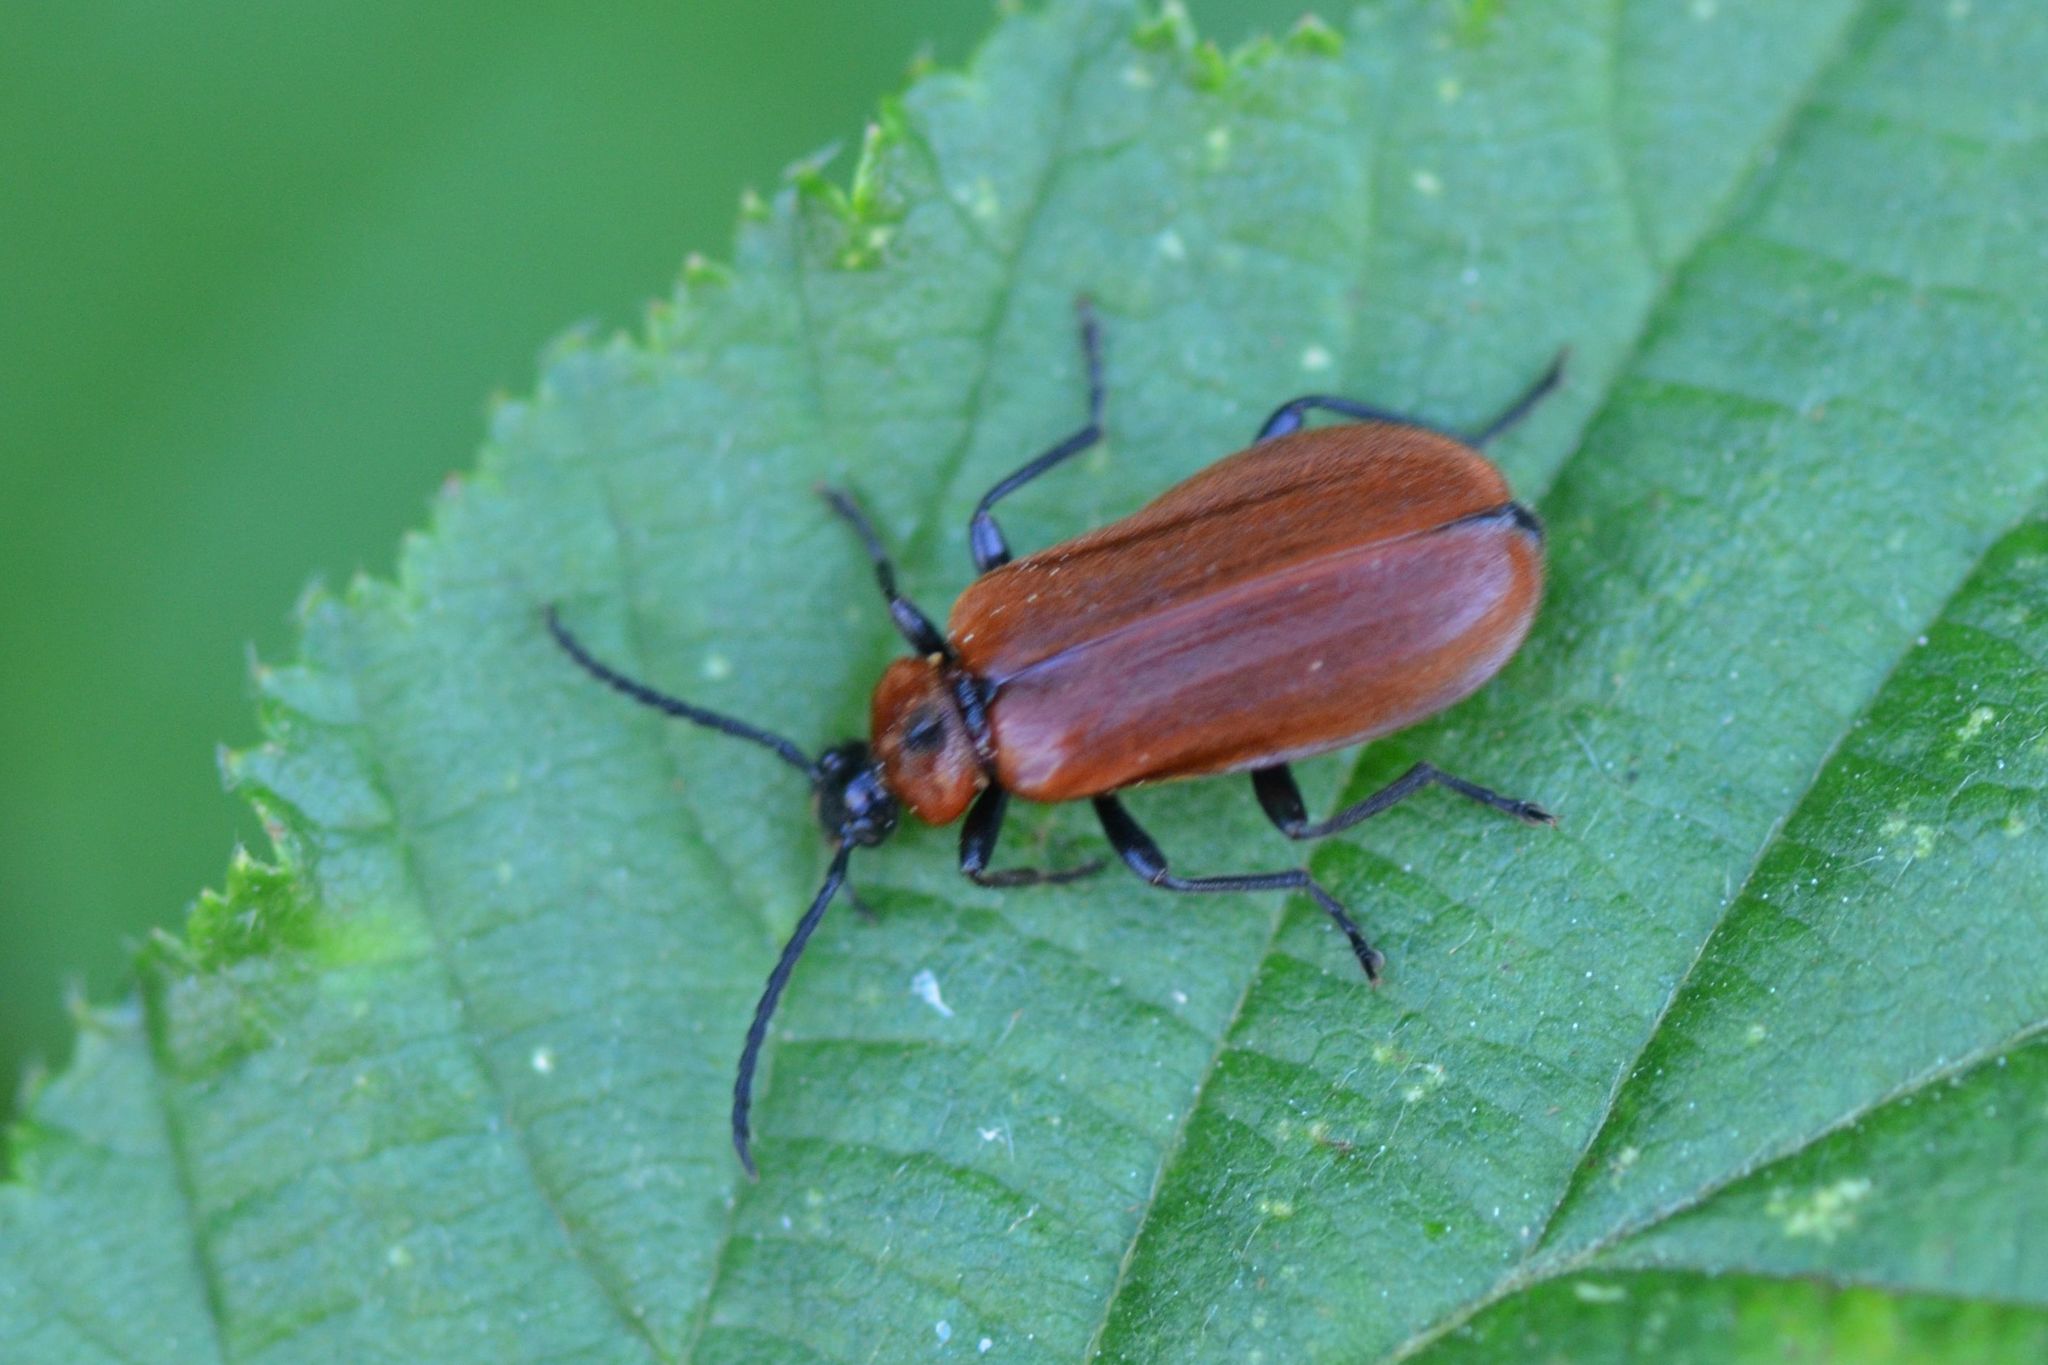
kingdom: Animalia
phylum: Arthropoda
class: Insecta
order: Coleoptera
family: Pyrochroidae
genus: Schizotus
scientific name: Schizotus pectinicornis
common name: Scarce cardinal beetle
